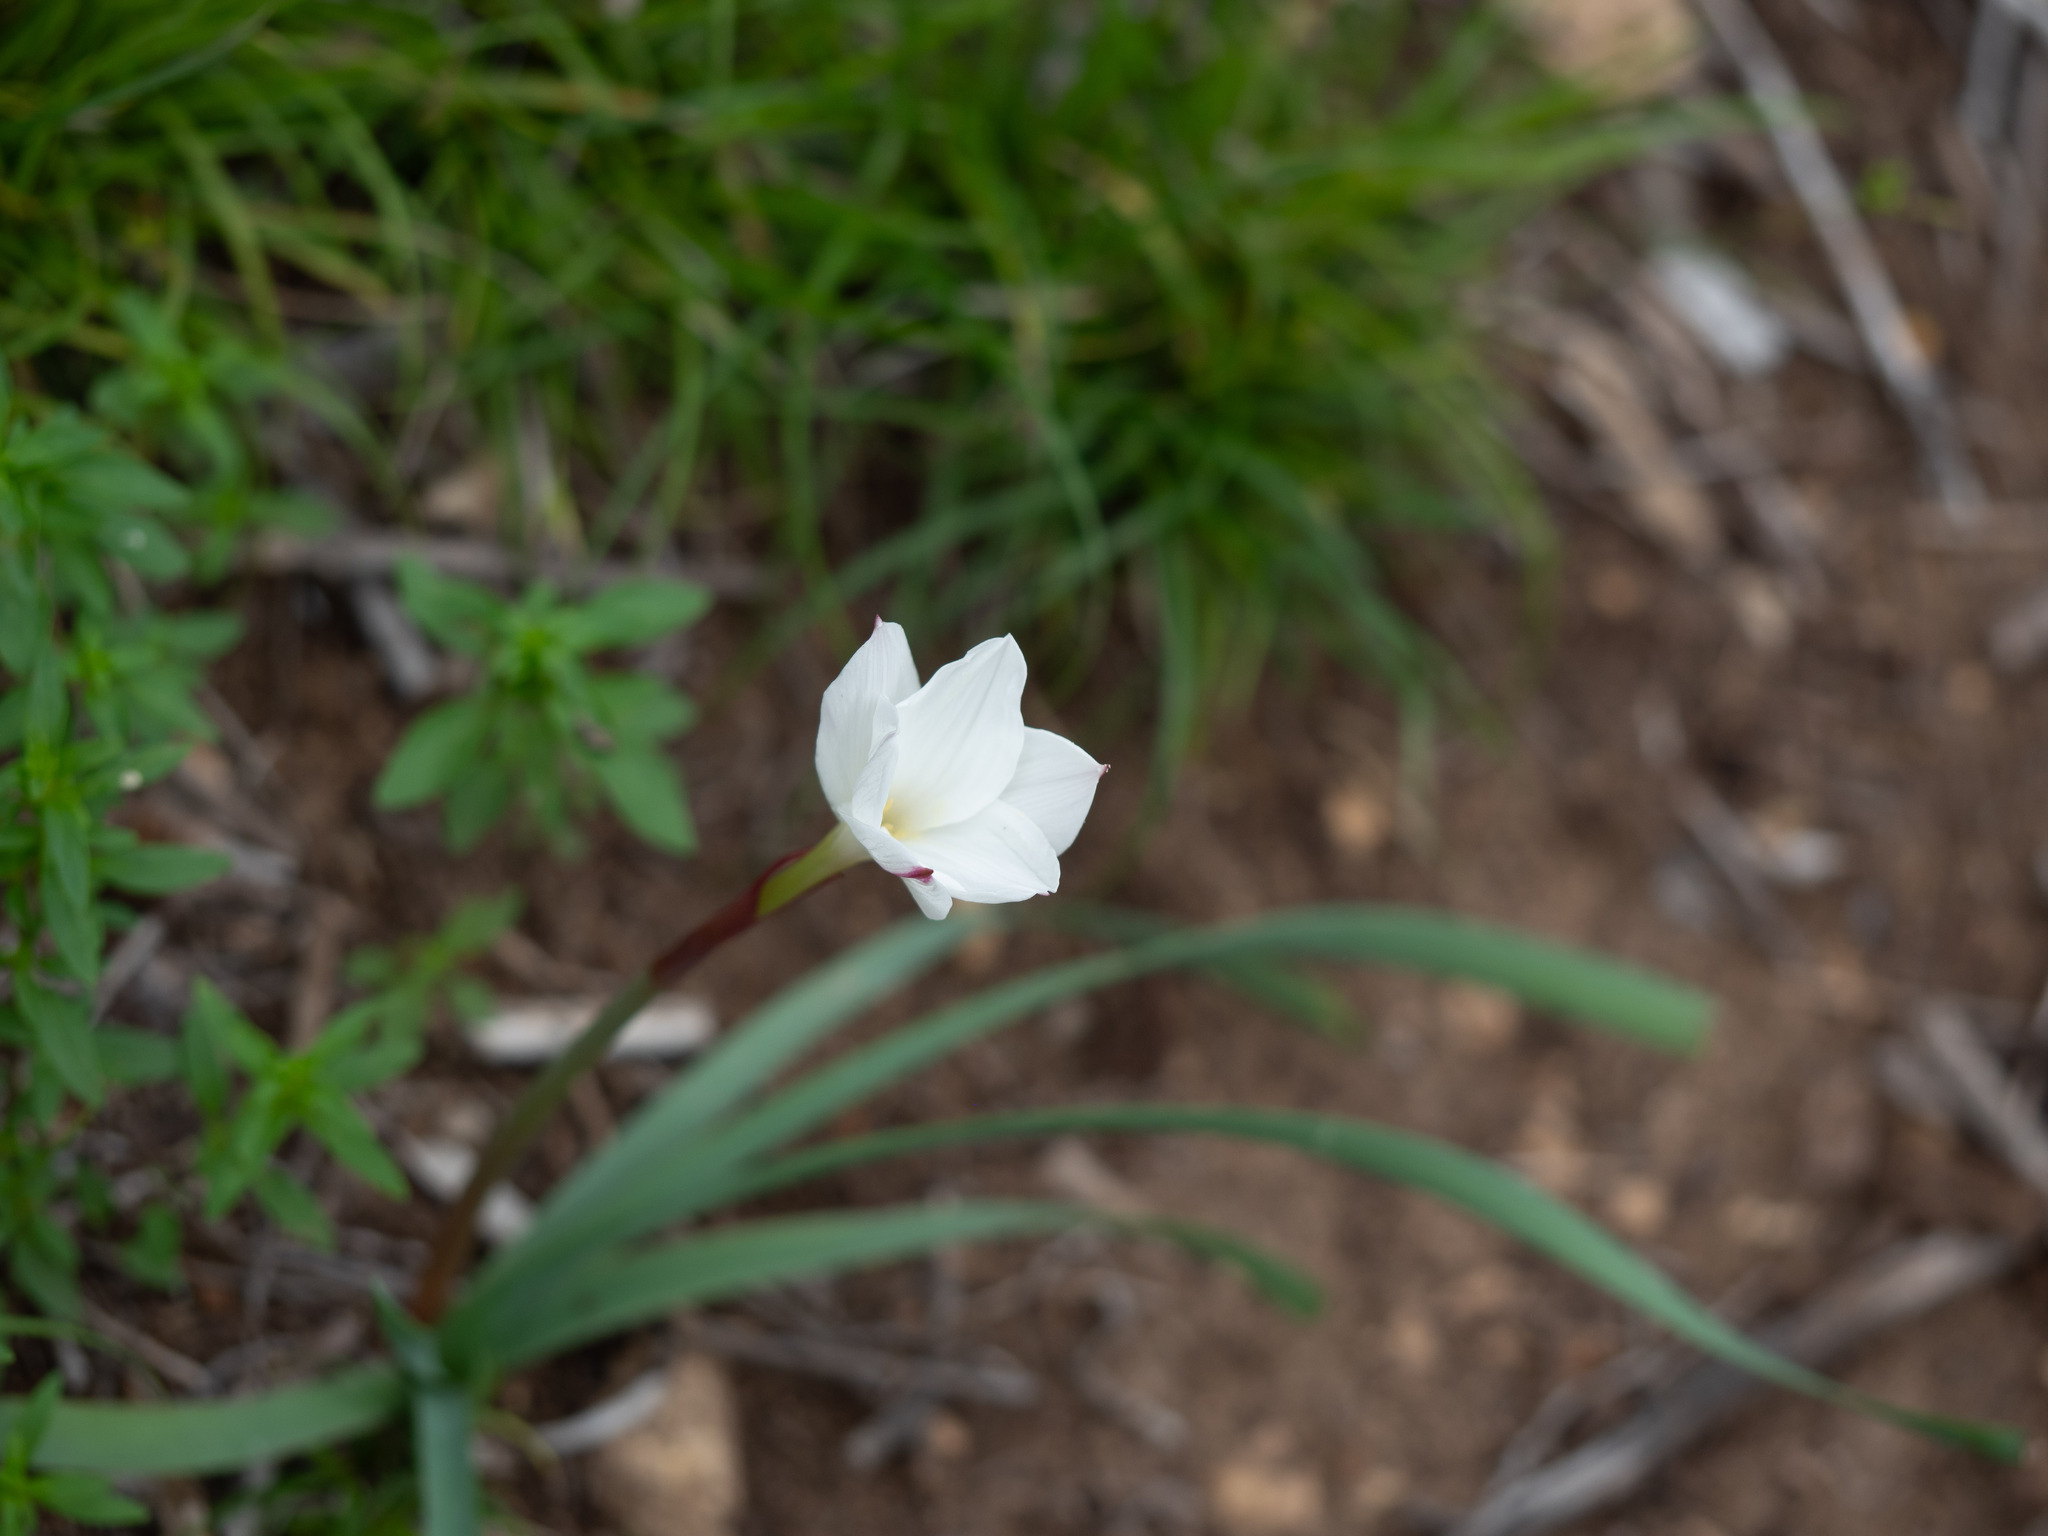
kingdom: Plantae
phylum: Tracheophyta
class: Liliopsida
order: Asparagales
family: Amaryllidaceae
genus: Zephyranthes
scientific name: Zephyranthes drummondii
